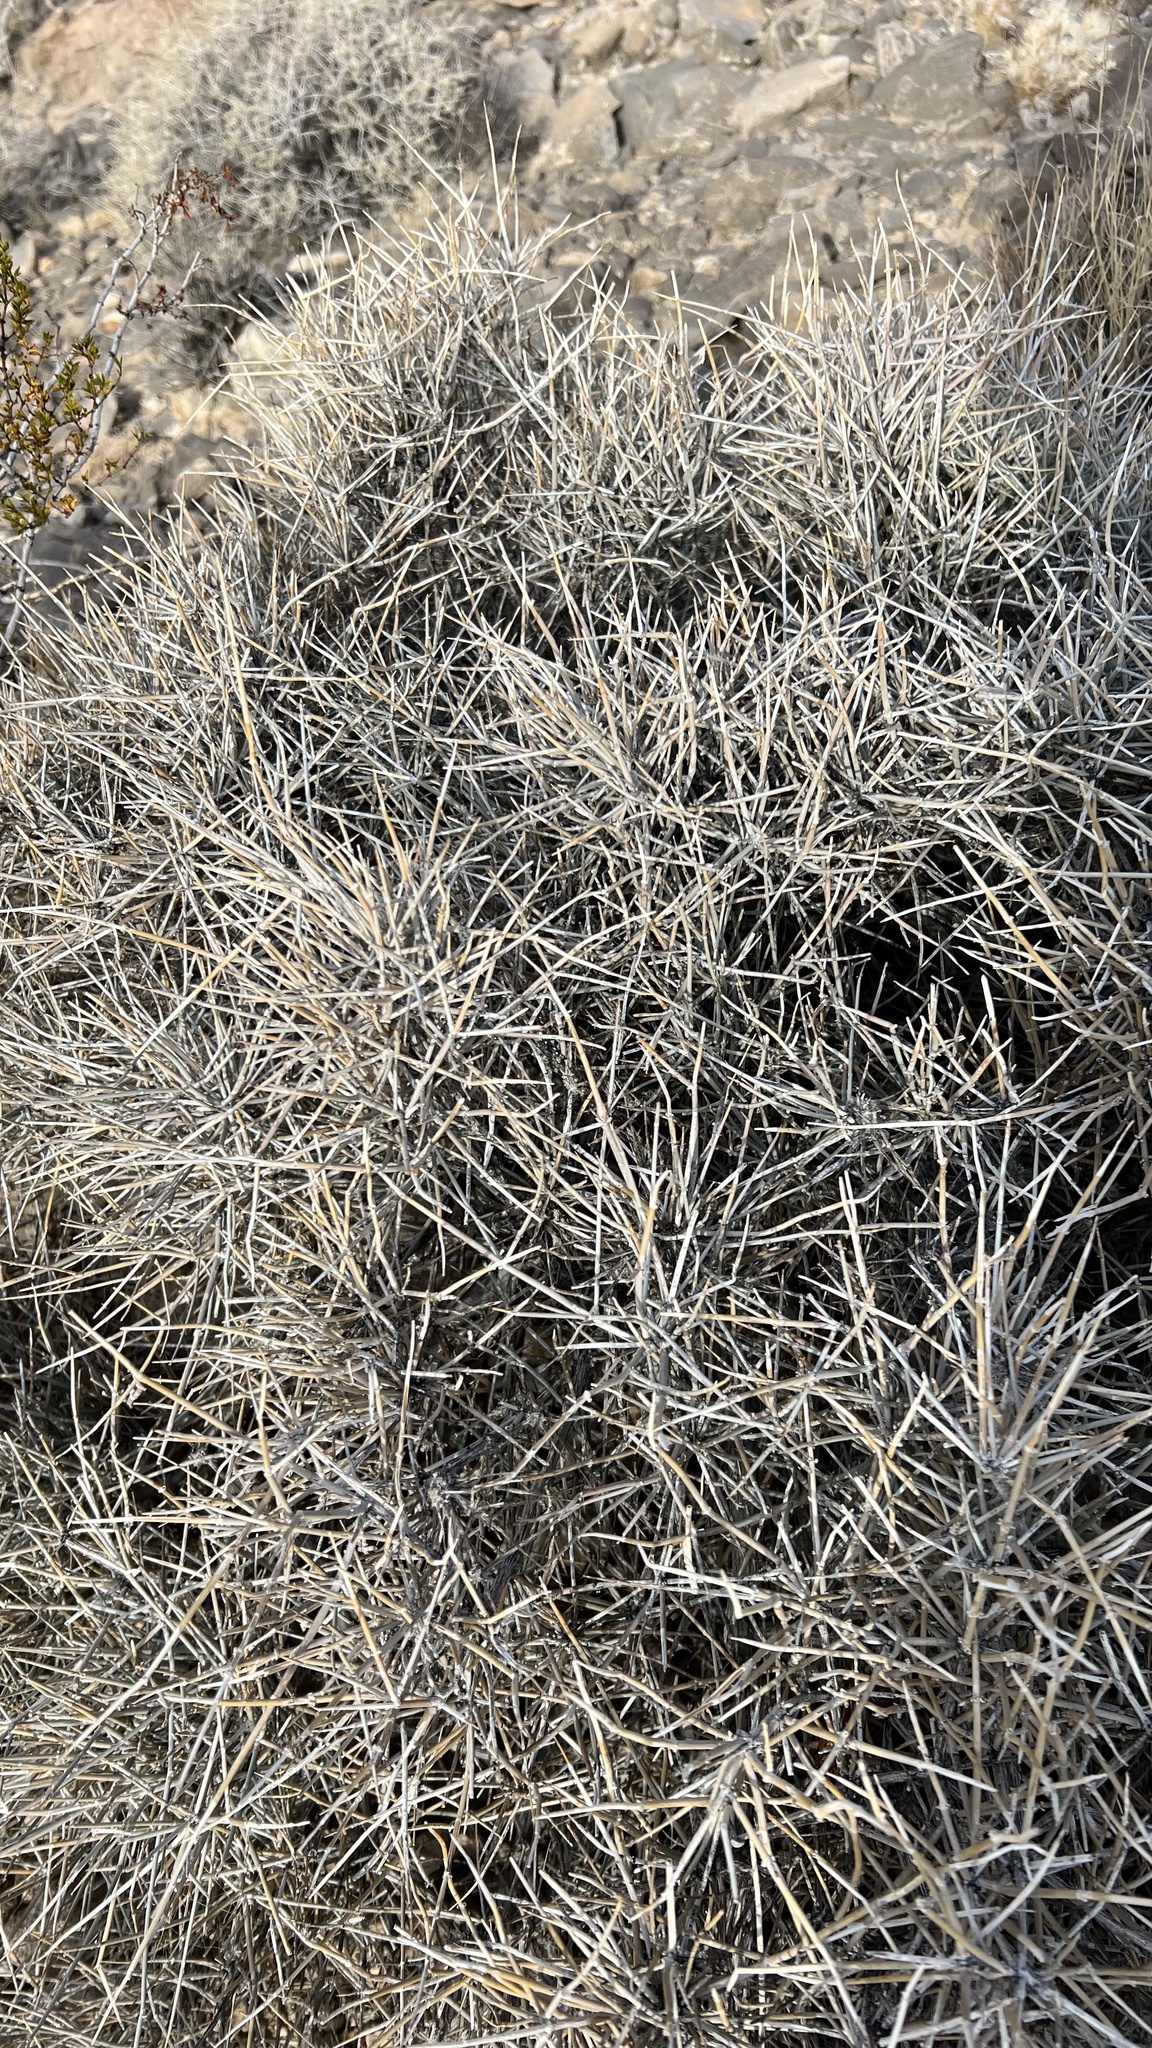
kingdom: Plantae
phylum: Tracheophyta
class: Gnetopsida
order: Ephedrales
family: Ephedraceae
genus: Ephedra
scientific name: Ephedra nevadensis
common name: Gray ephedra
